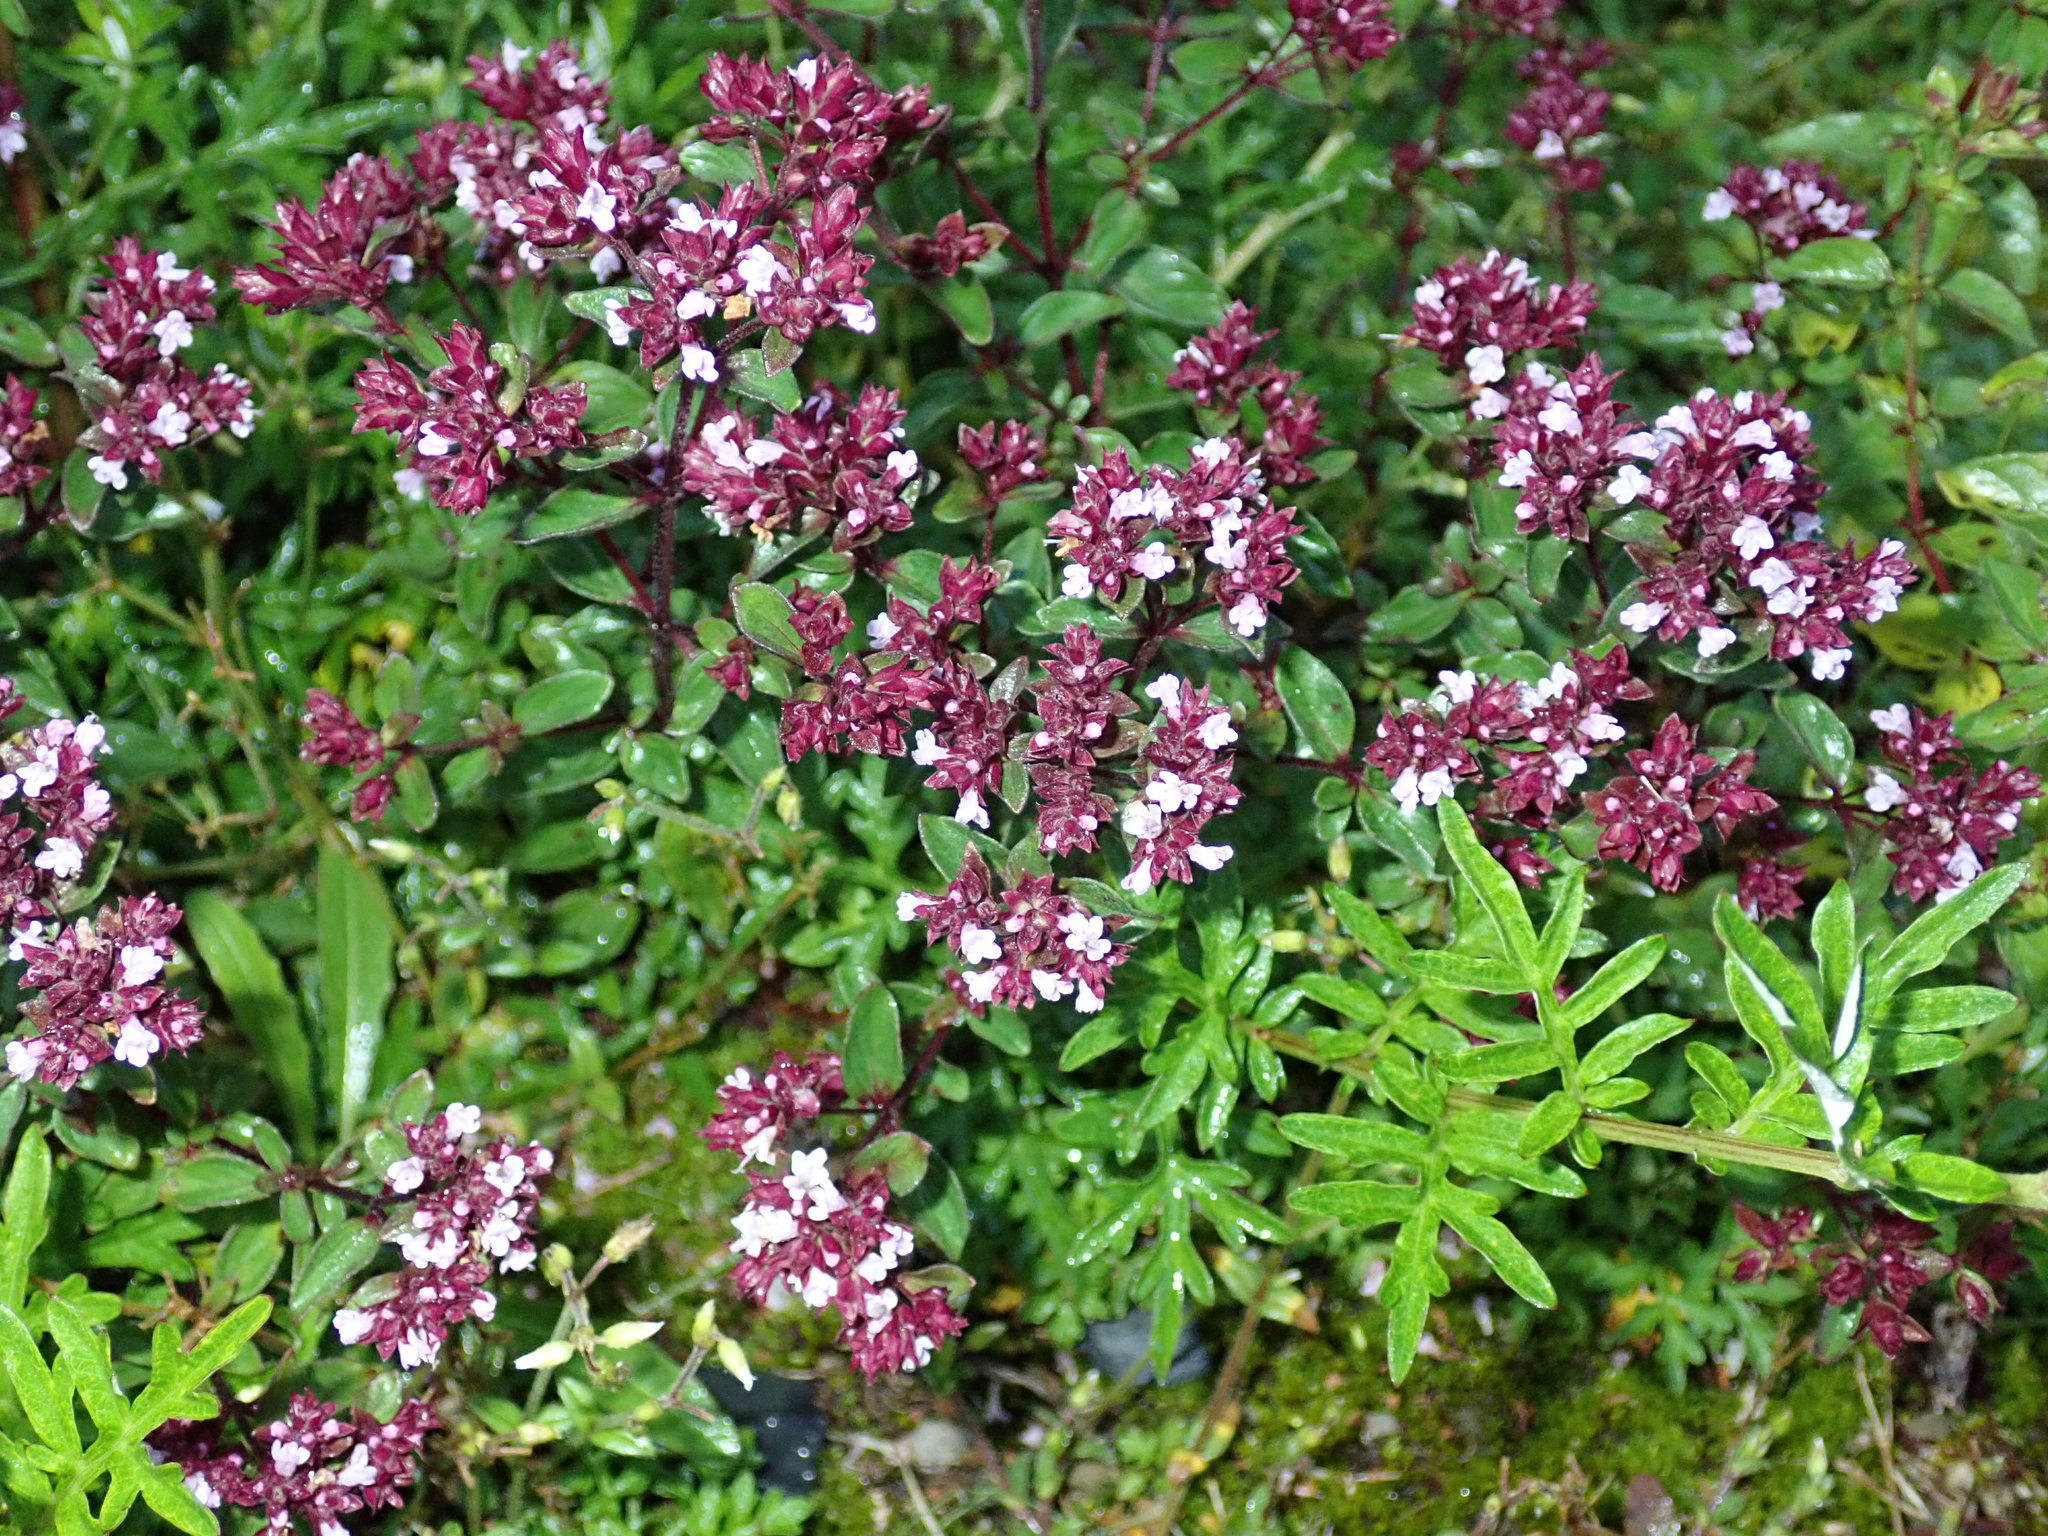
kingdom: Plantae
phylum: Tracheophyta
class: Magnoliopsida
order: Lamiales
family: Lamiaceae
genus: Origanum
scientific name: Origanum vulgare
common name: Wild marjoram
